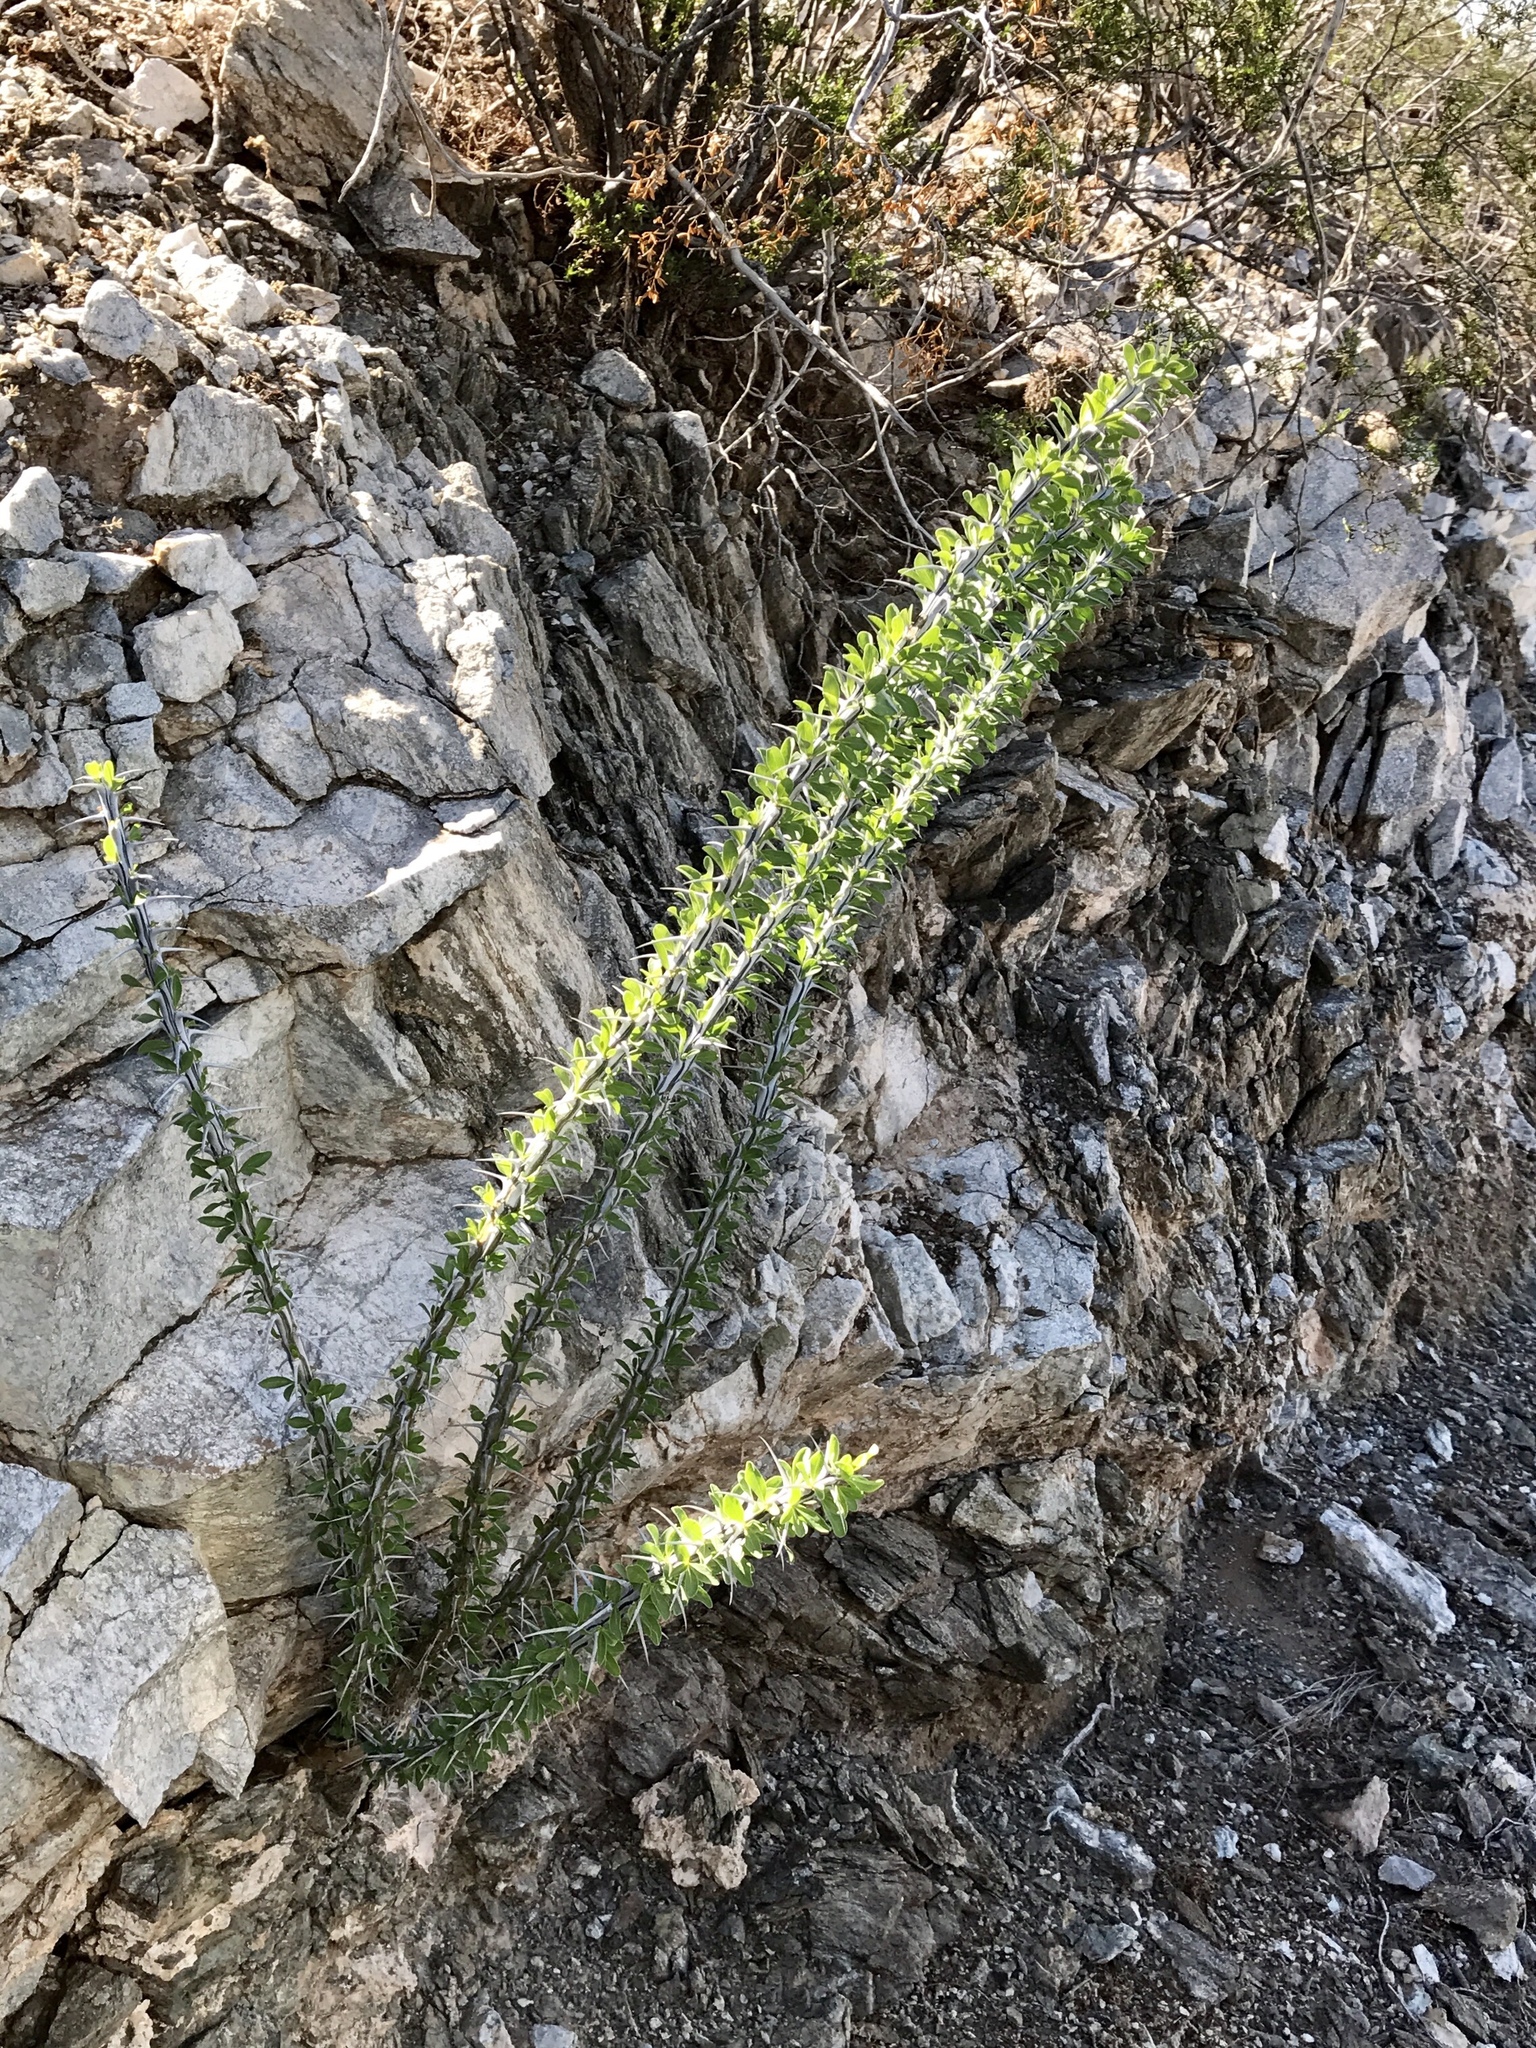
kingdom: Plantae
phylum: Tracheophyta
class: Magnoliopsida
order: Ericales
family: Fouquieriaceae
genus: Fouquieria
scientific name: Fouquieria splendens
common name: Vine-cactus
